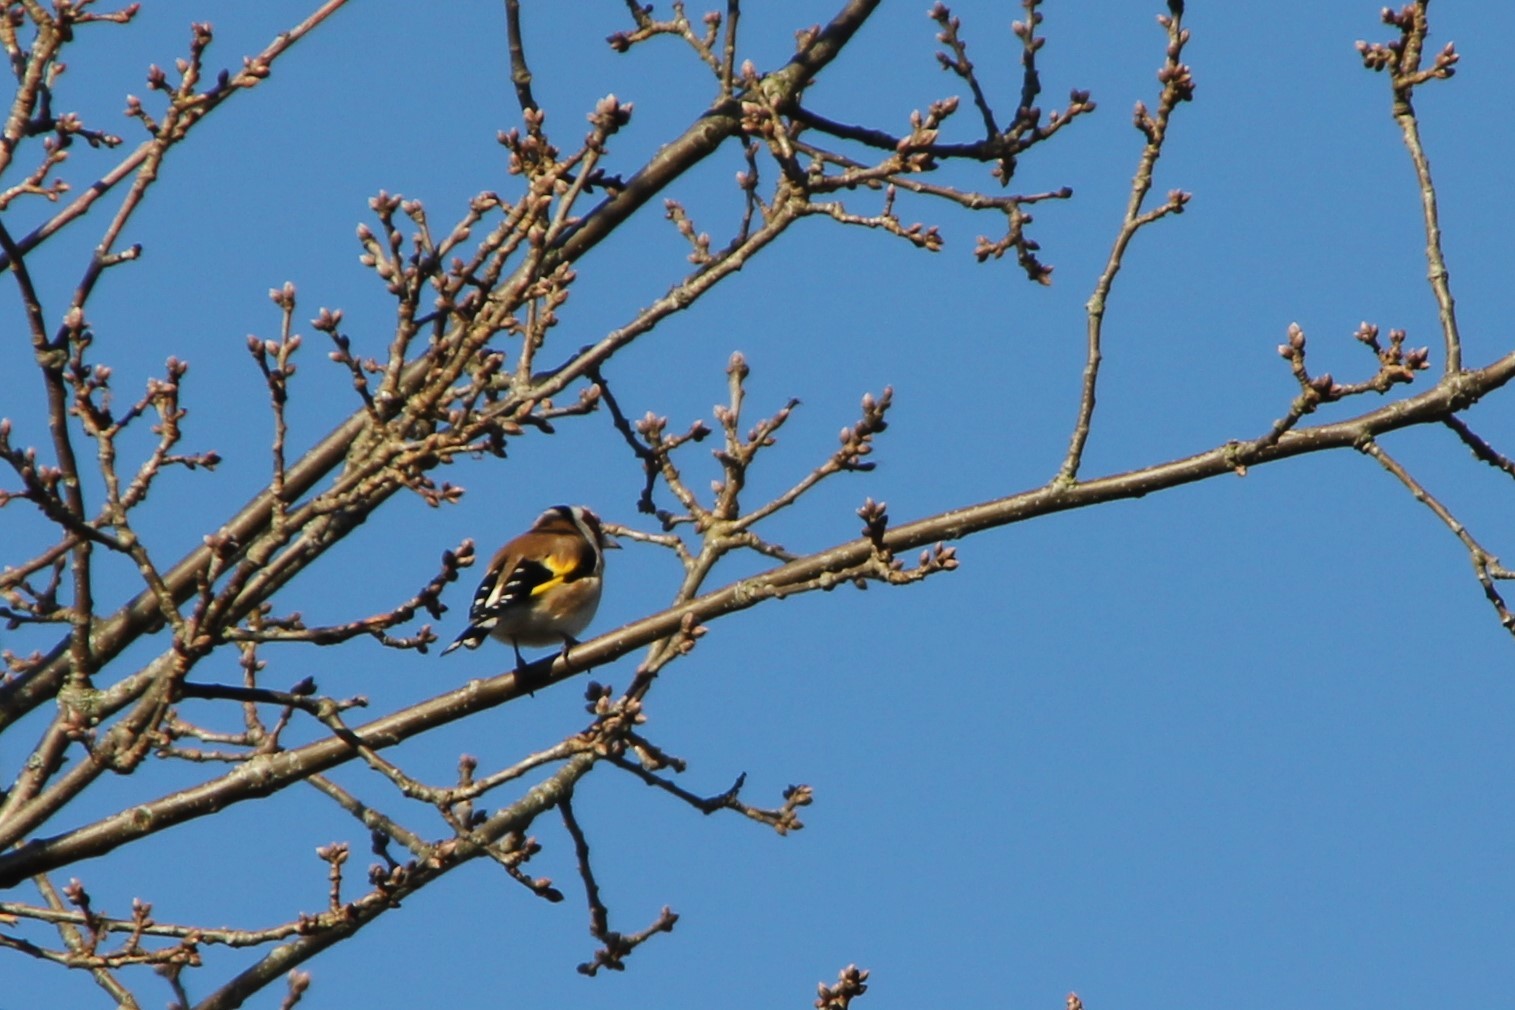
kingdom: Animalia
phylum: Chordata
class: Aves
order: Passeriformes
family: Fringillidae
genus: Carduelis
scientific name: Carduelis carduelis
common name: European goldfinch
